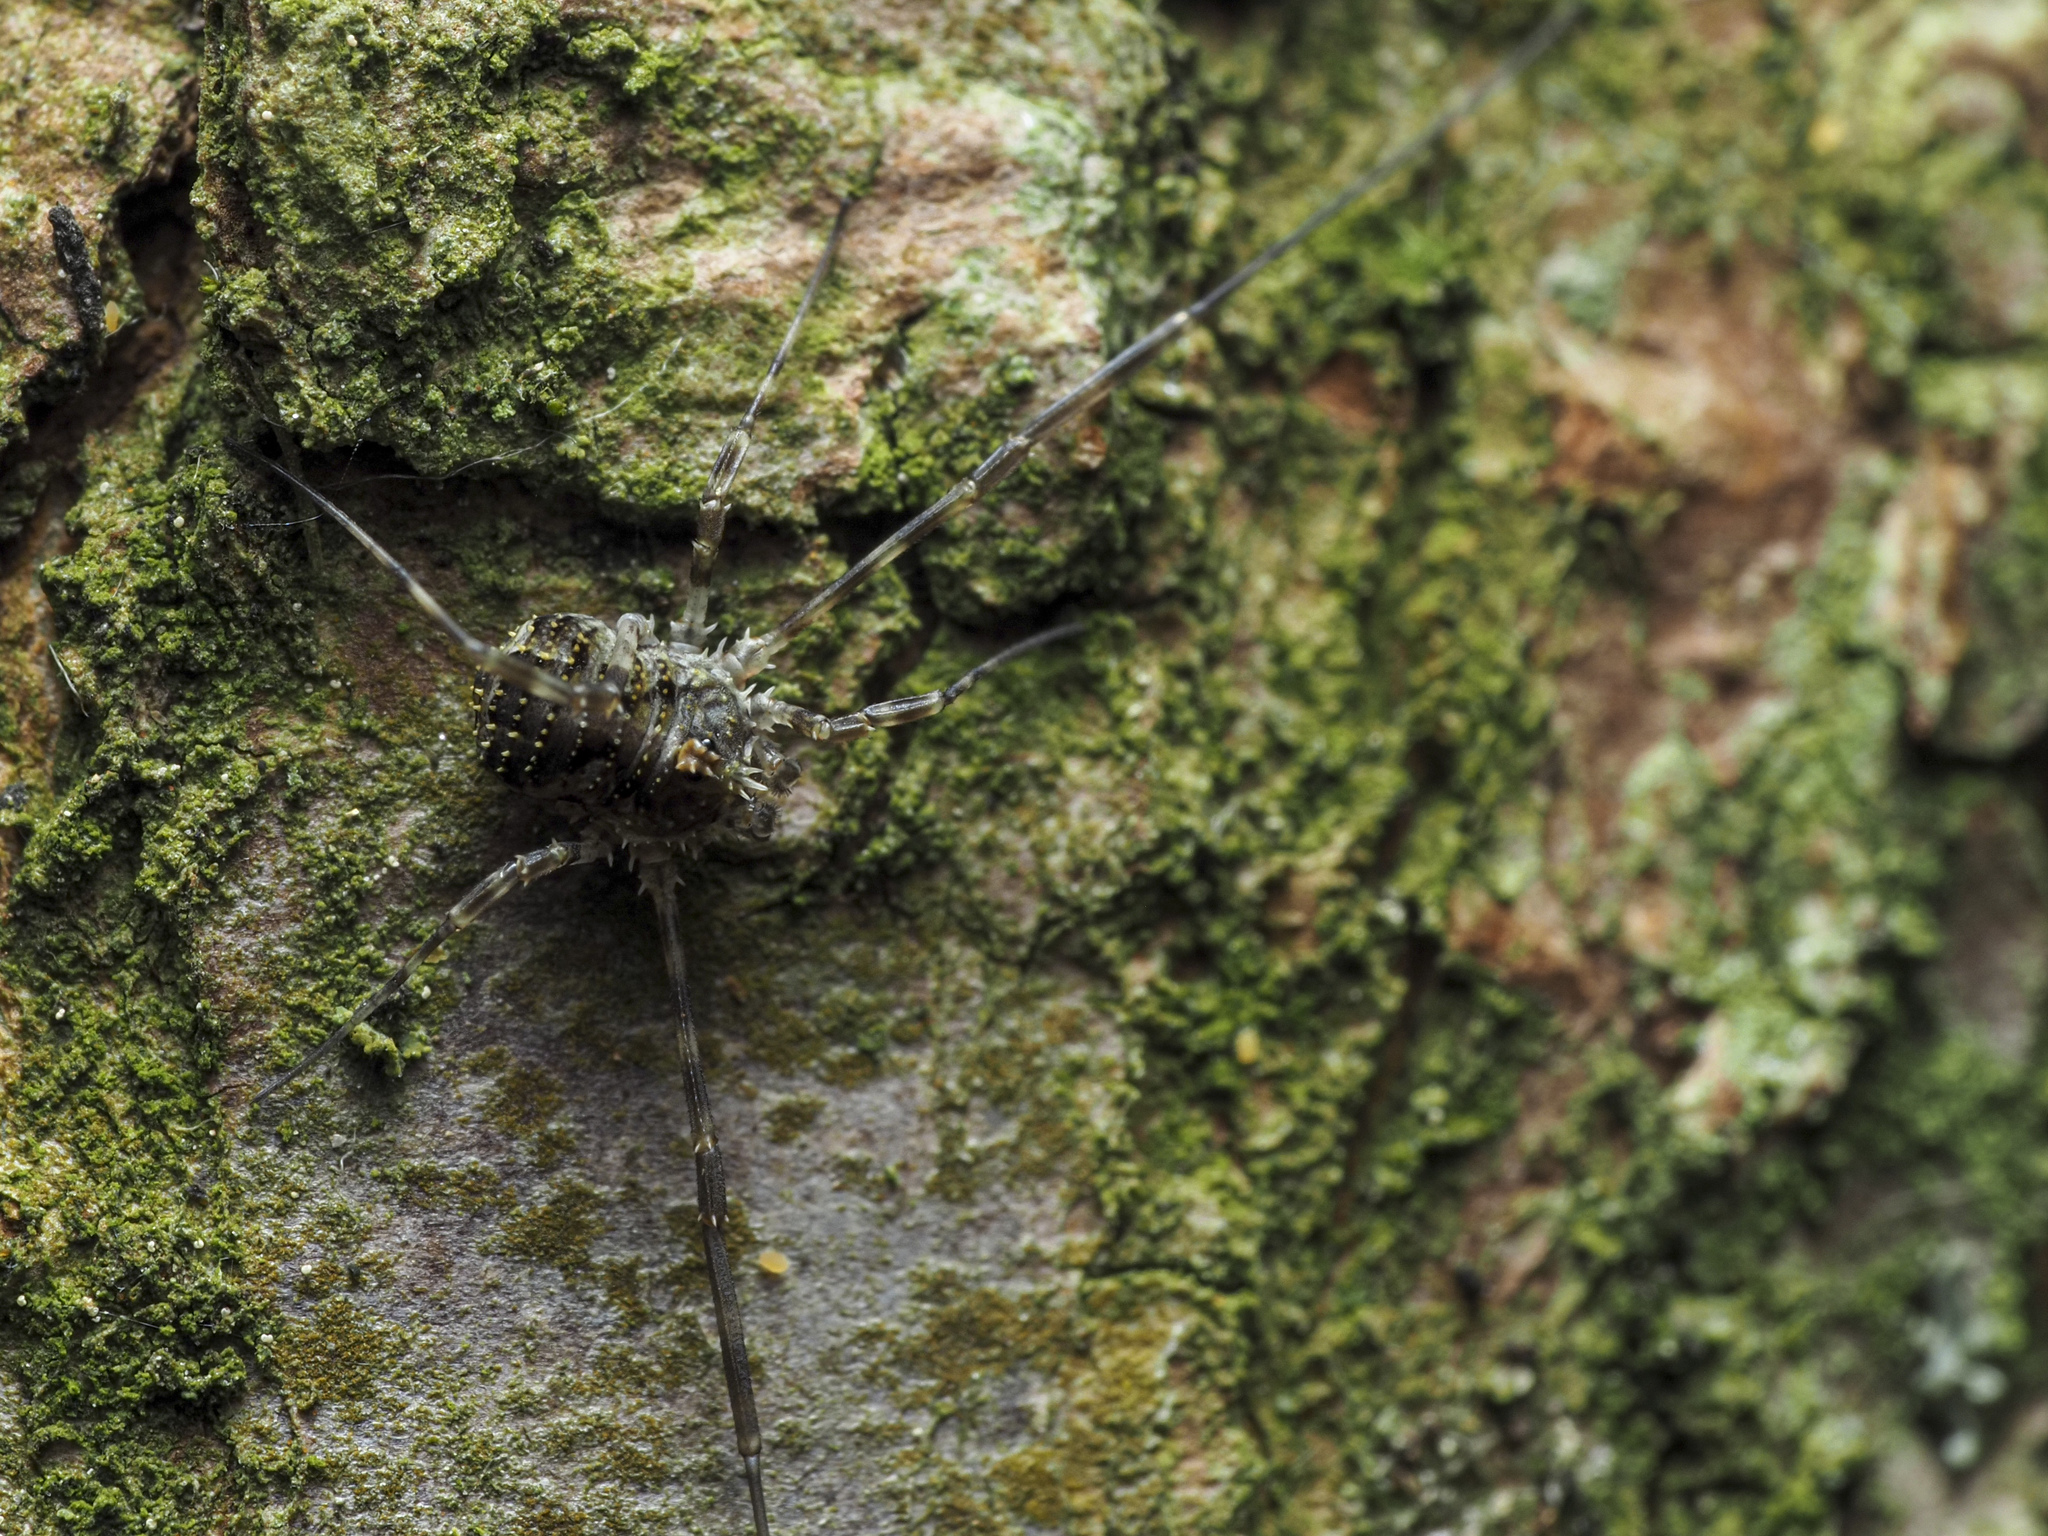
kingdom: Animalia
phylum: Arthropoda
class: Arachnida
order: Opiliones
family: Phalangiidae
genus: Lacinius
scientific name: Lacinius dentiger
